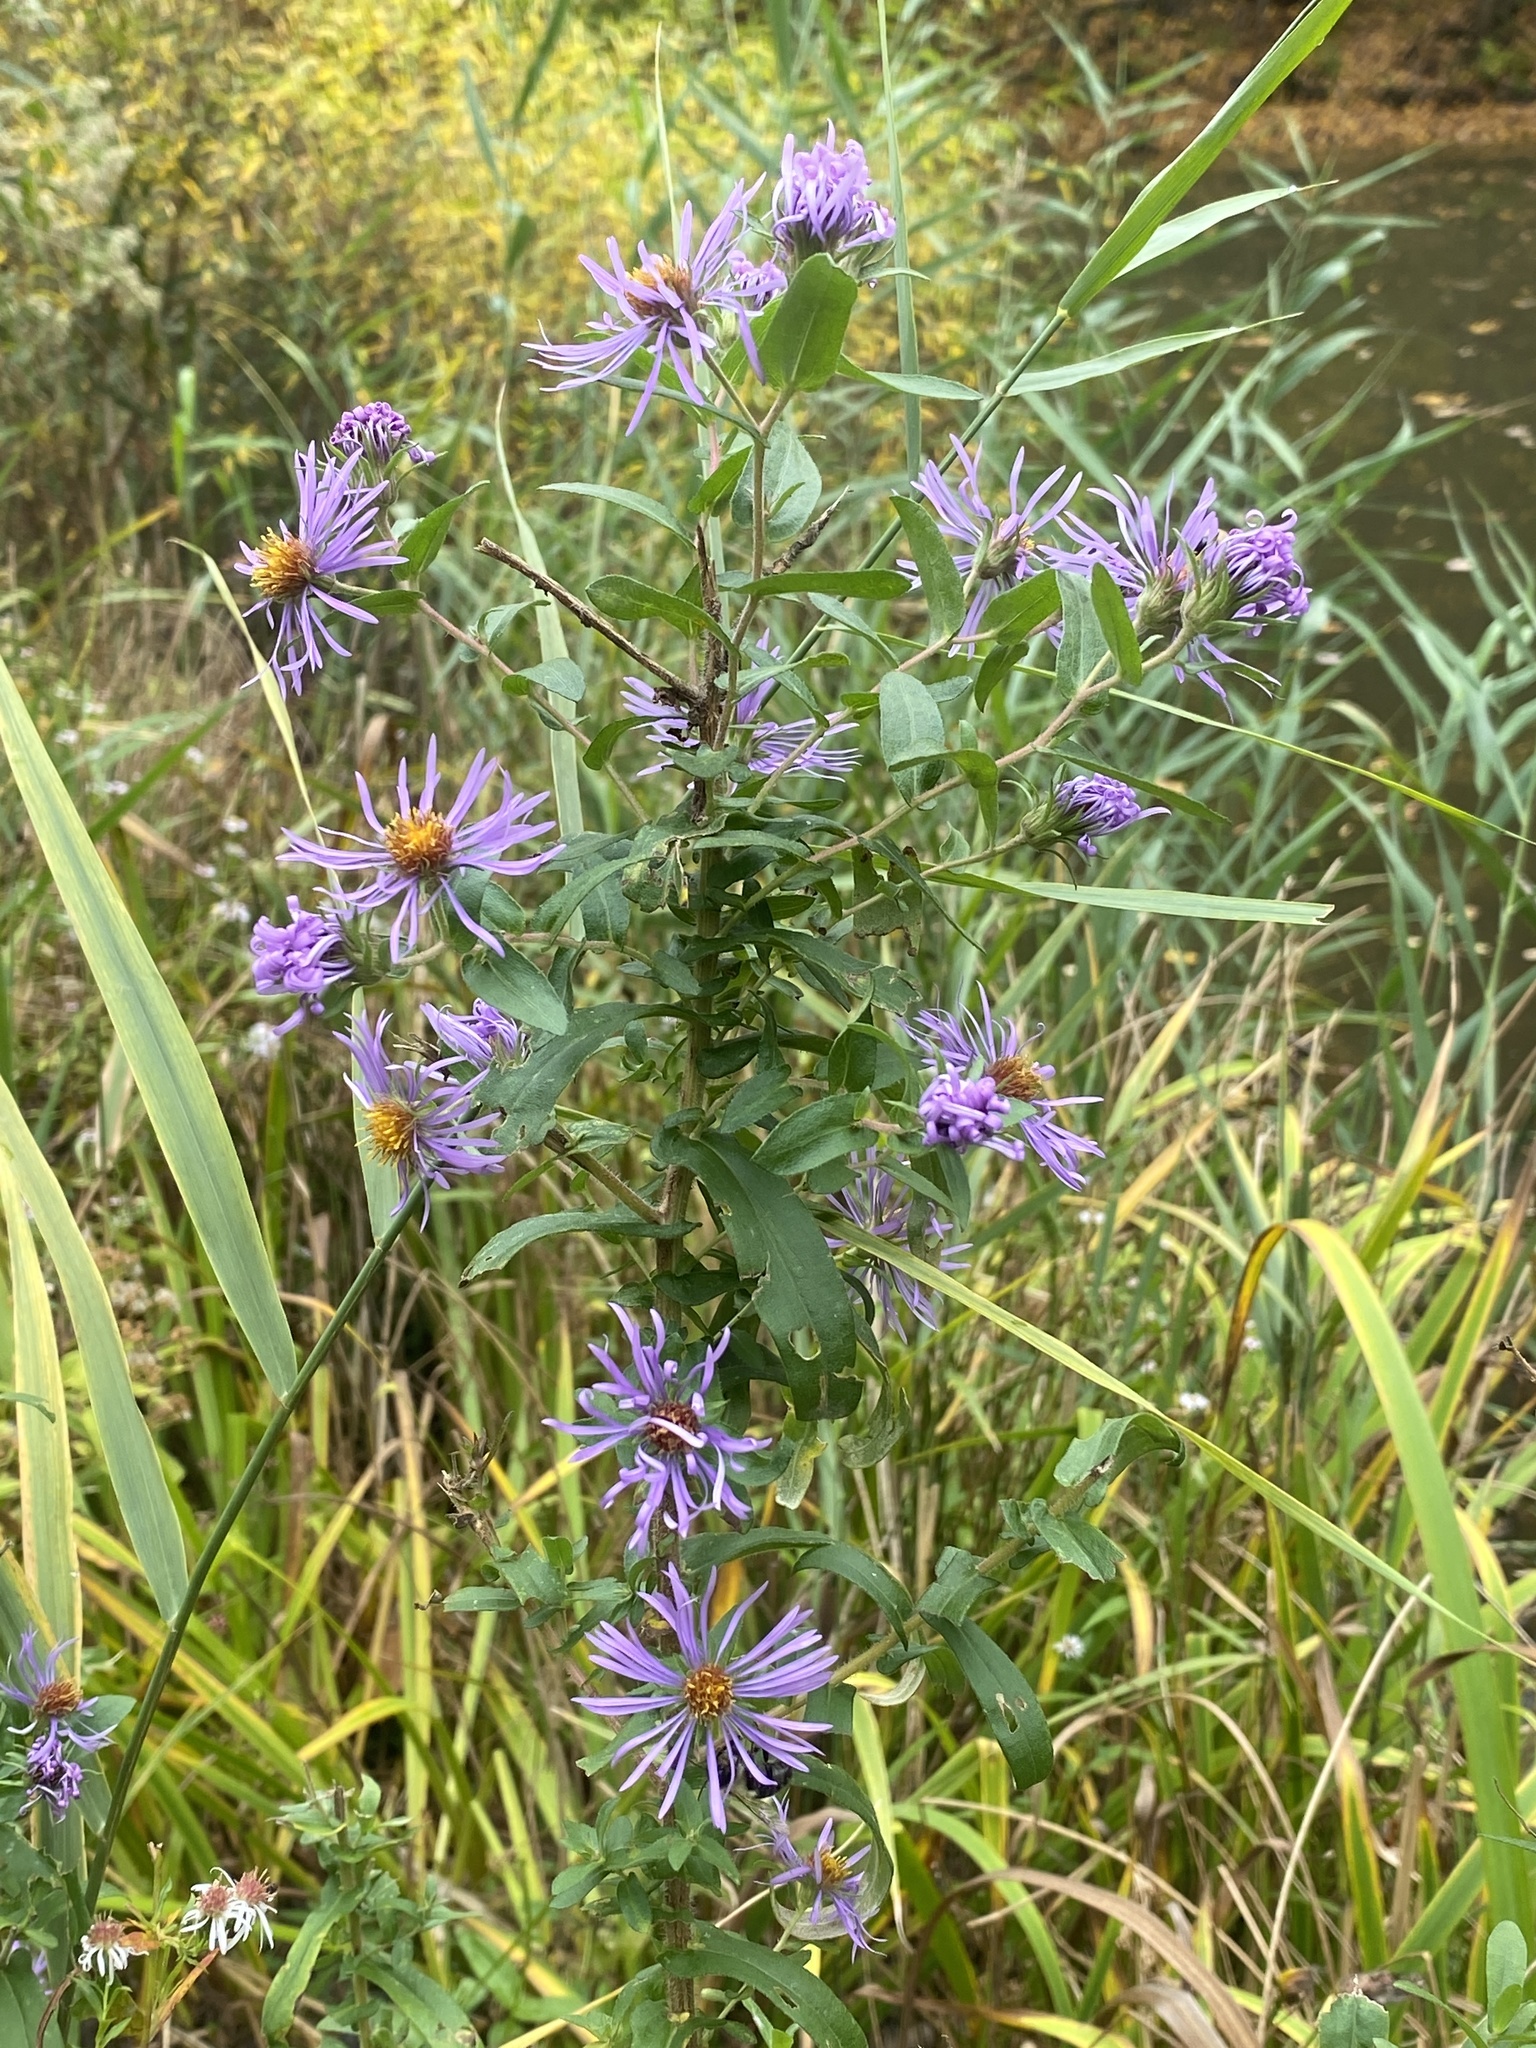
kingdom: Plantae
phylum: Tracheophyta
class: Magnoliopsida
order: Asterales
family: Asteraceae
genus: Symphyotrichum
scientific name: Symphyotrichum novae-angliae
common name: Michaelmas daisy
